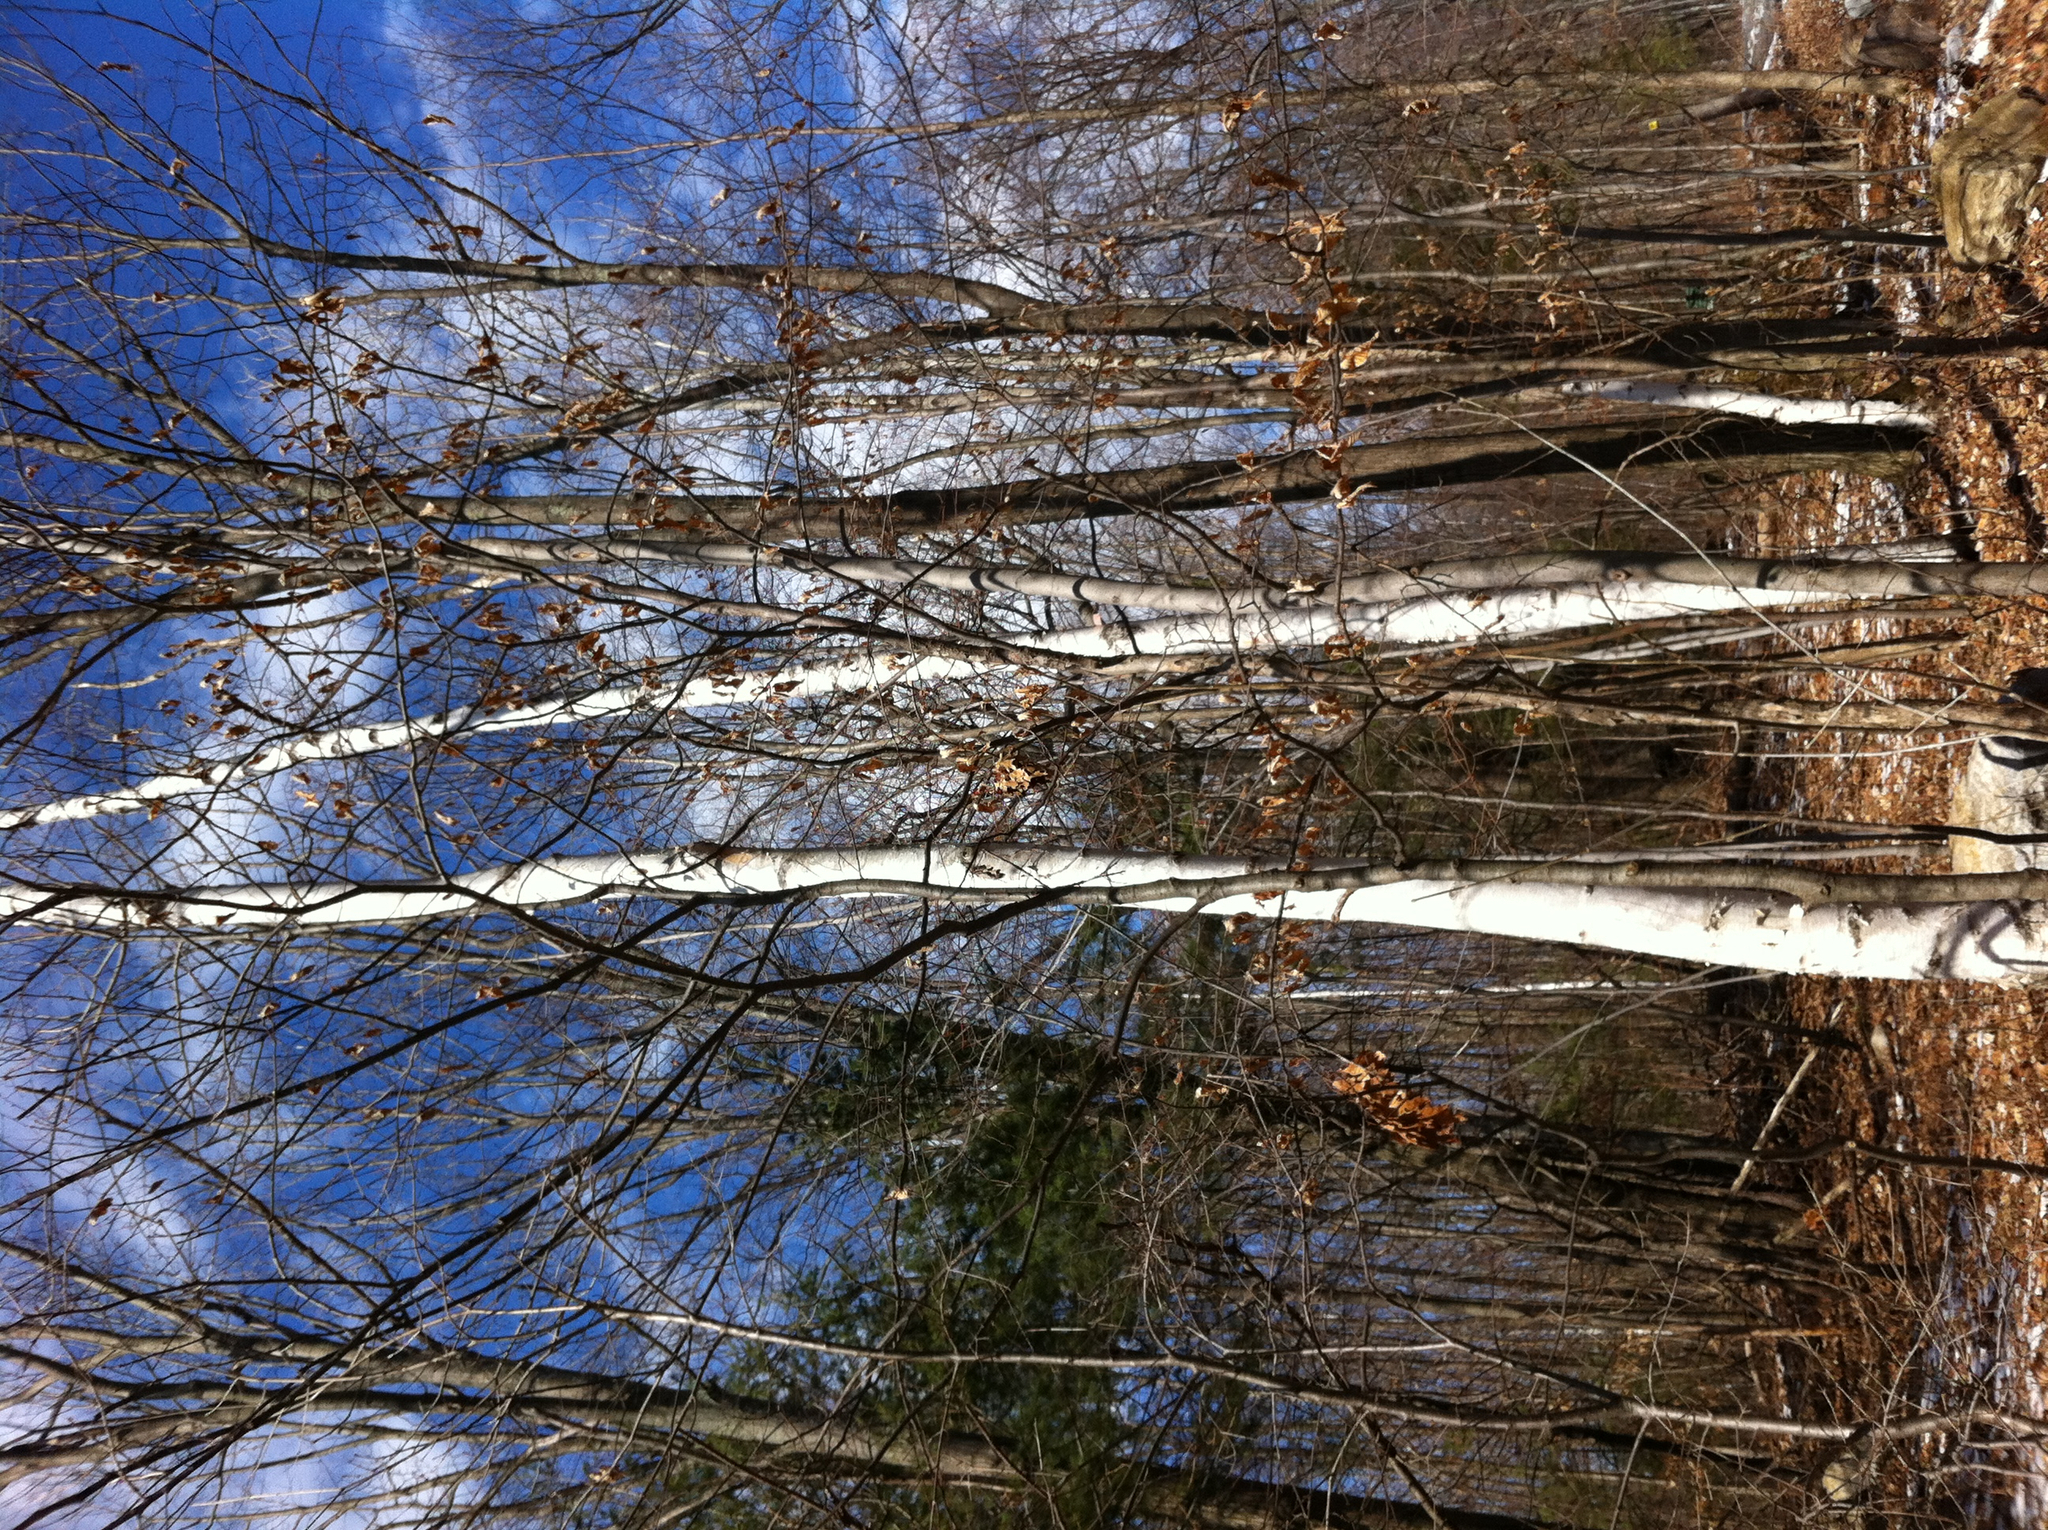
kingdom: Plantae
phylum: Tracheophyta
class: Magnoliopsida
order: Fagales
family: Betulaceae
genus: Betula
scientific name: Betula papyrifera
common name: Paper birch
